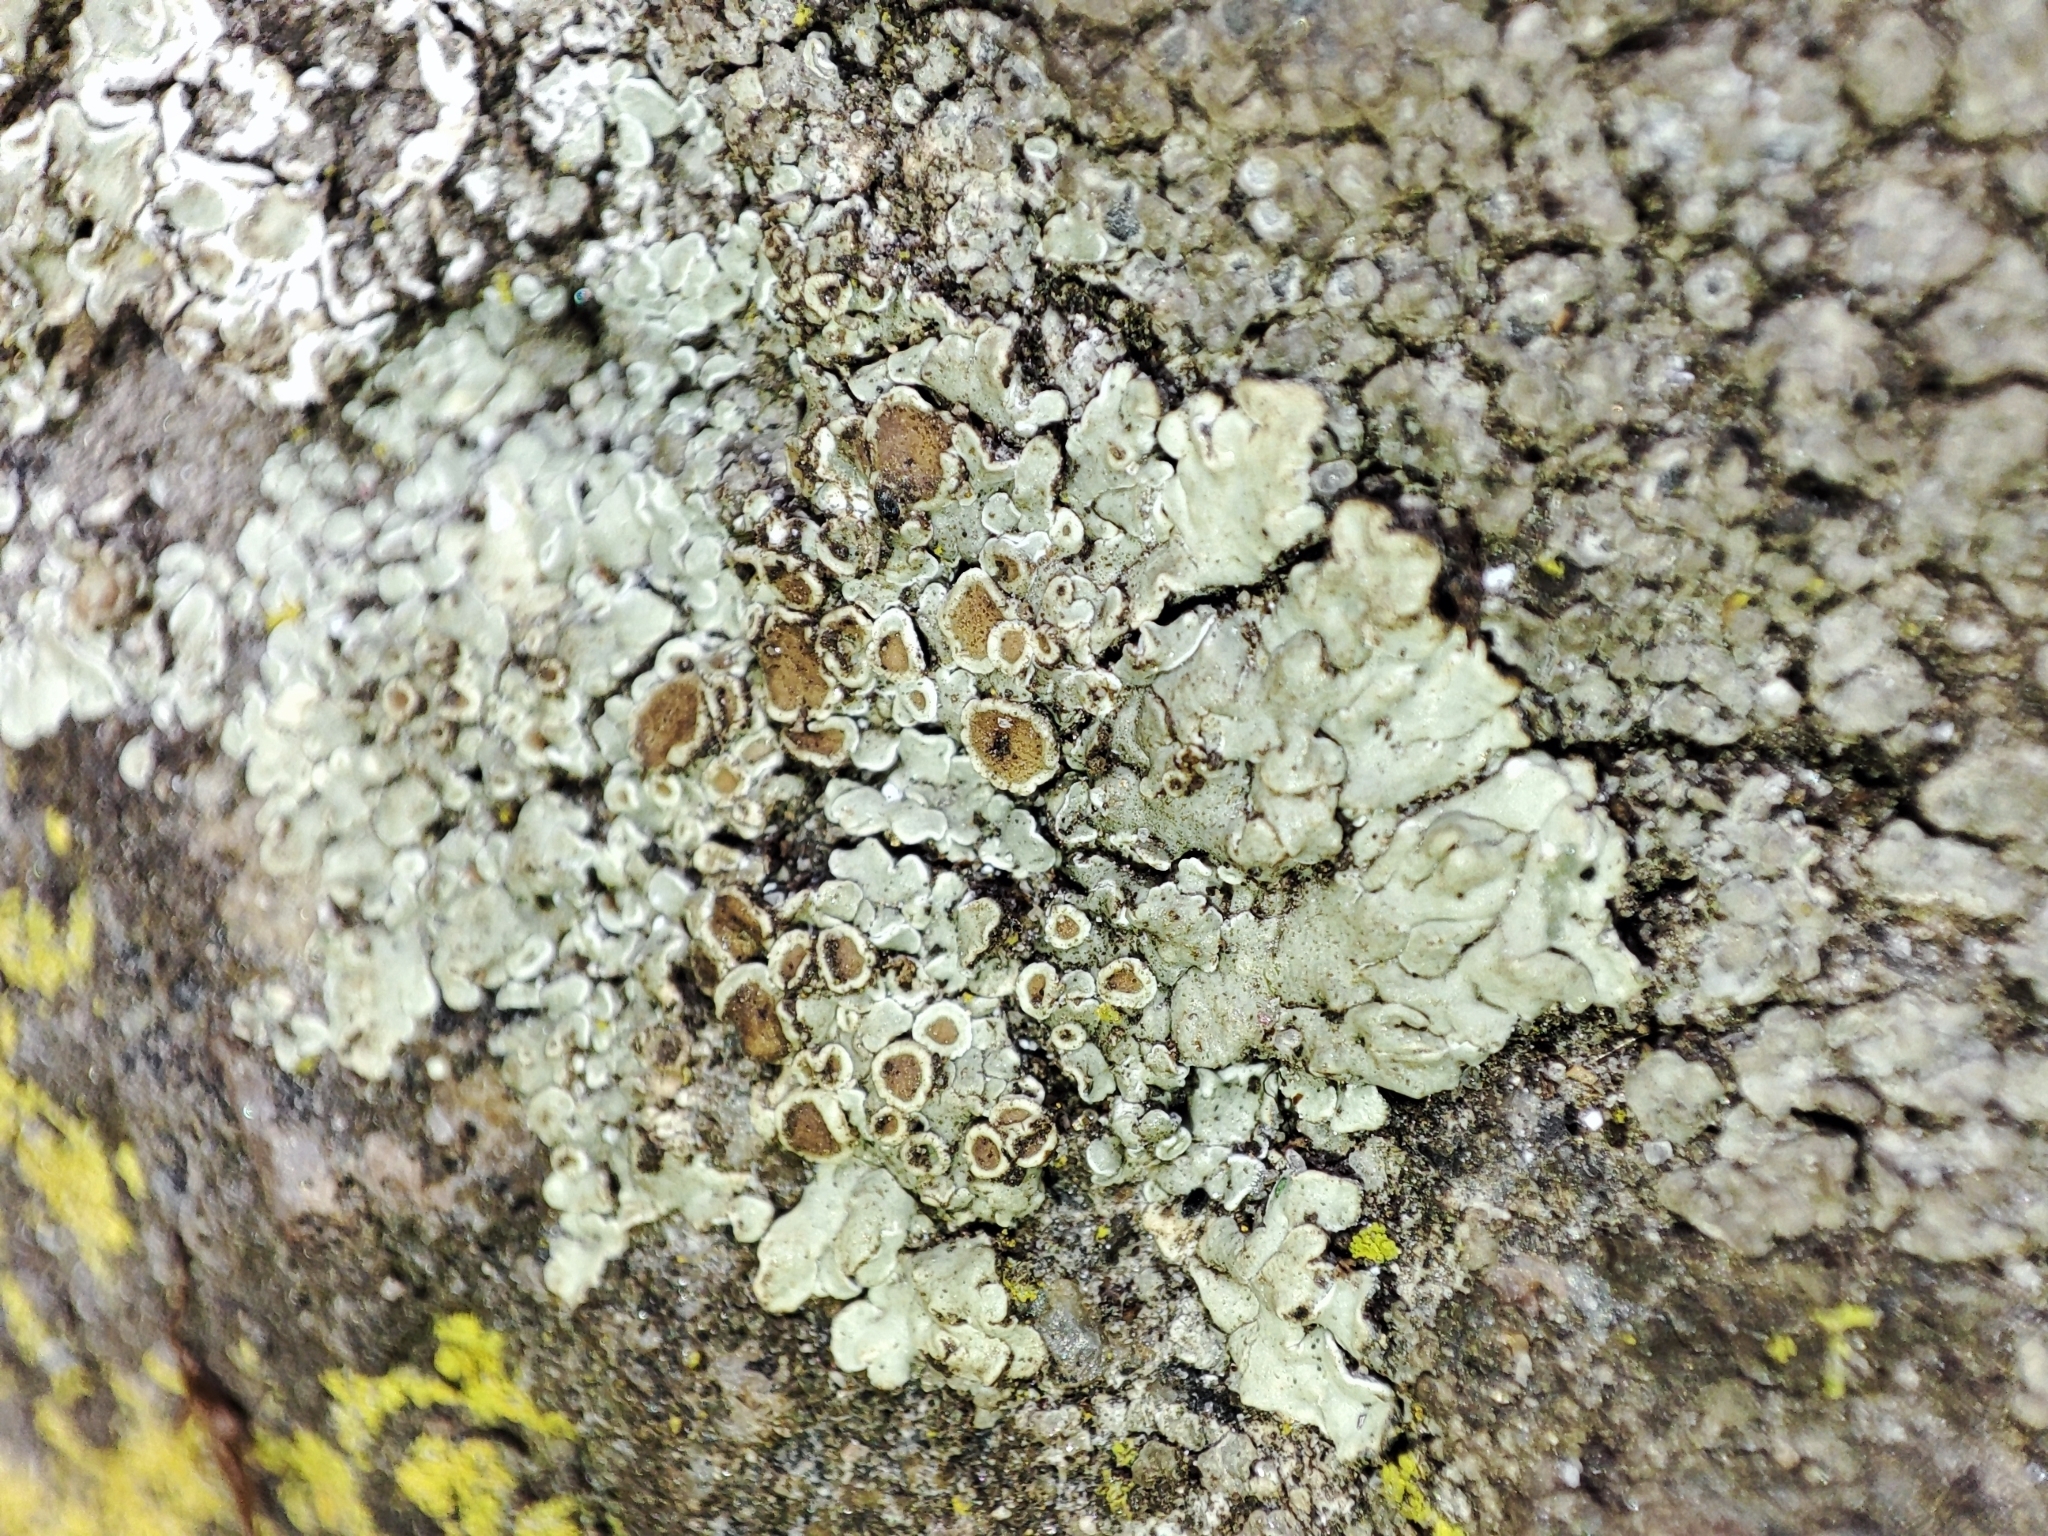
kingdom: Fungi
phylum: Ascomycota
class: Lecanoromycetes
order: Lecanorales
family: Lecanoraceae
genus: Protoparmeliopsis
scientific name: Protoparmeliopsis muralis
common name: Stonewall rim lichen
